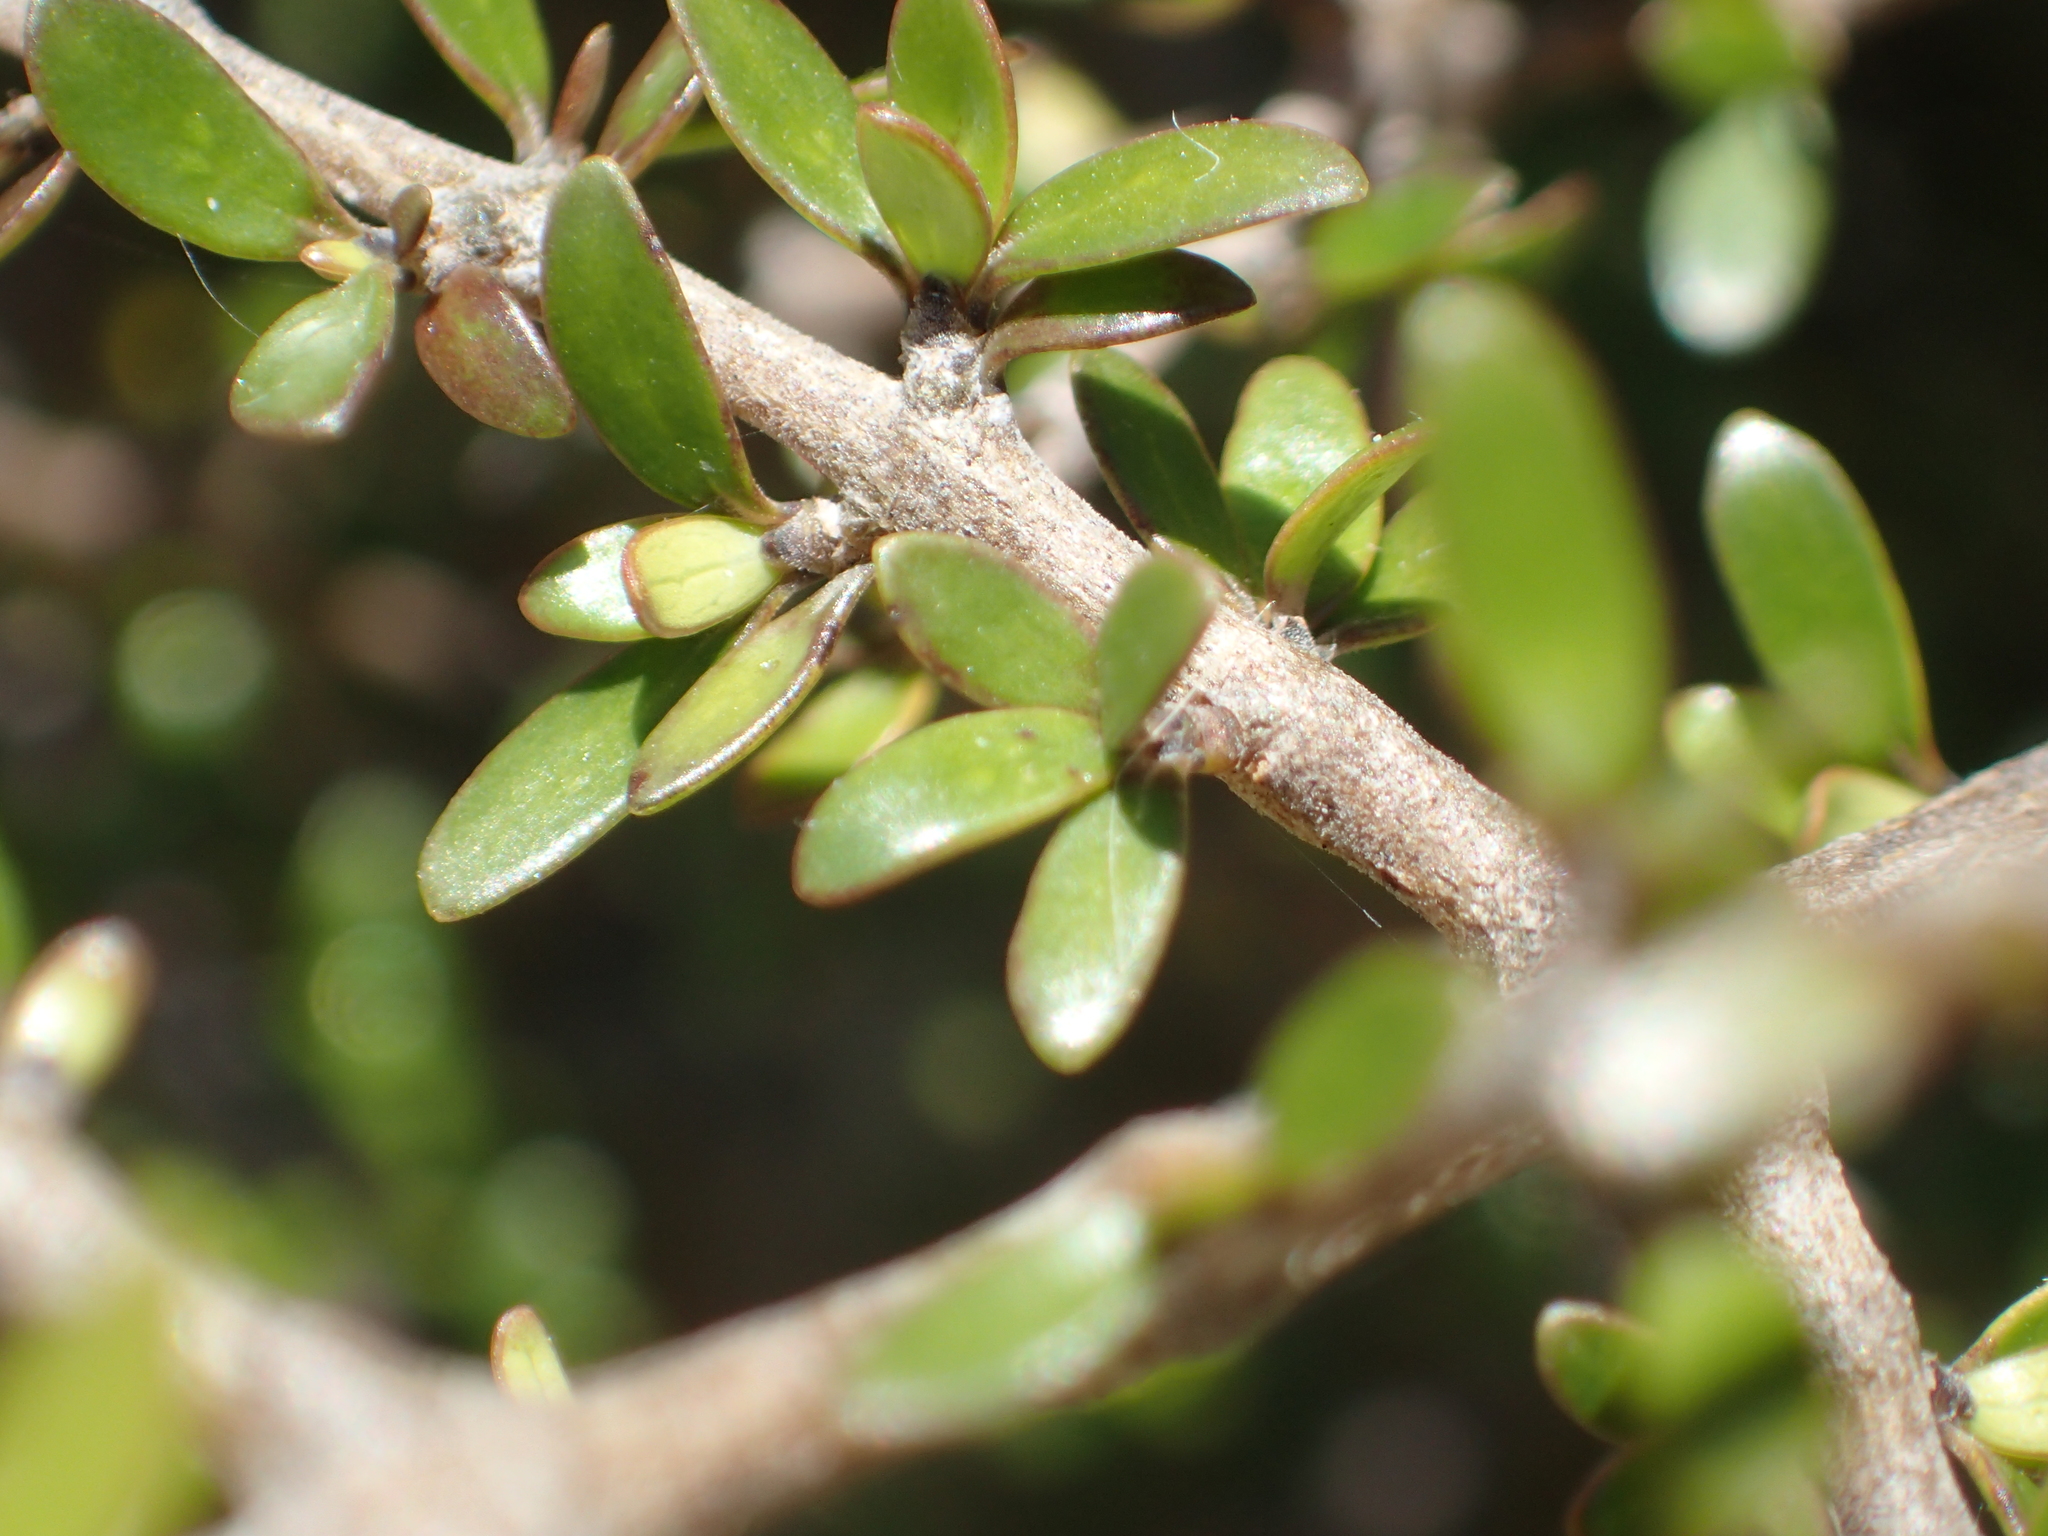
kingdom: Plantae
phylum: Tracheophyta
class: Magnoliopsida
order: Gentianales
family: Rubiaceae
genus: Coprosma
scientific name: Coprosma propinqua
